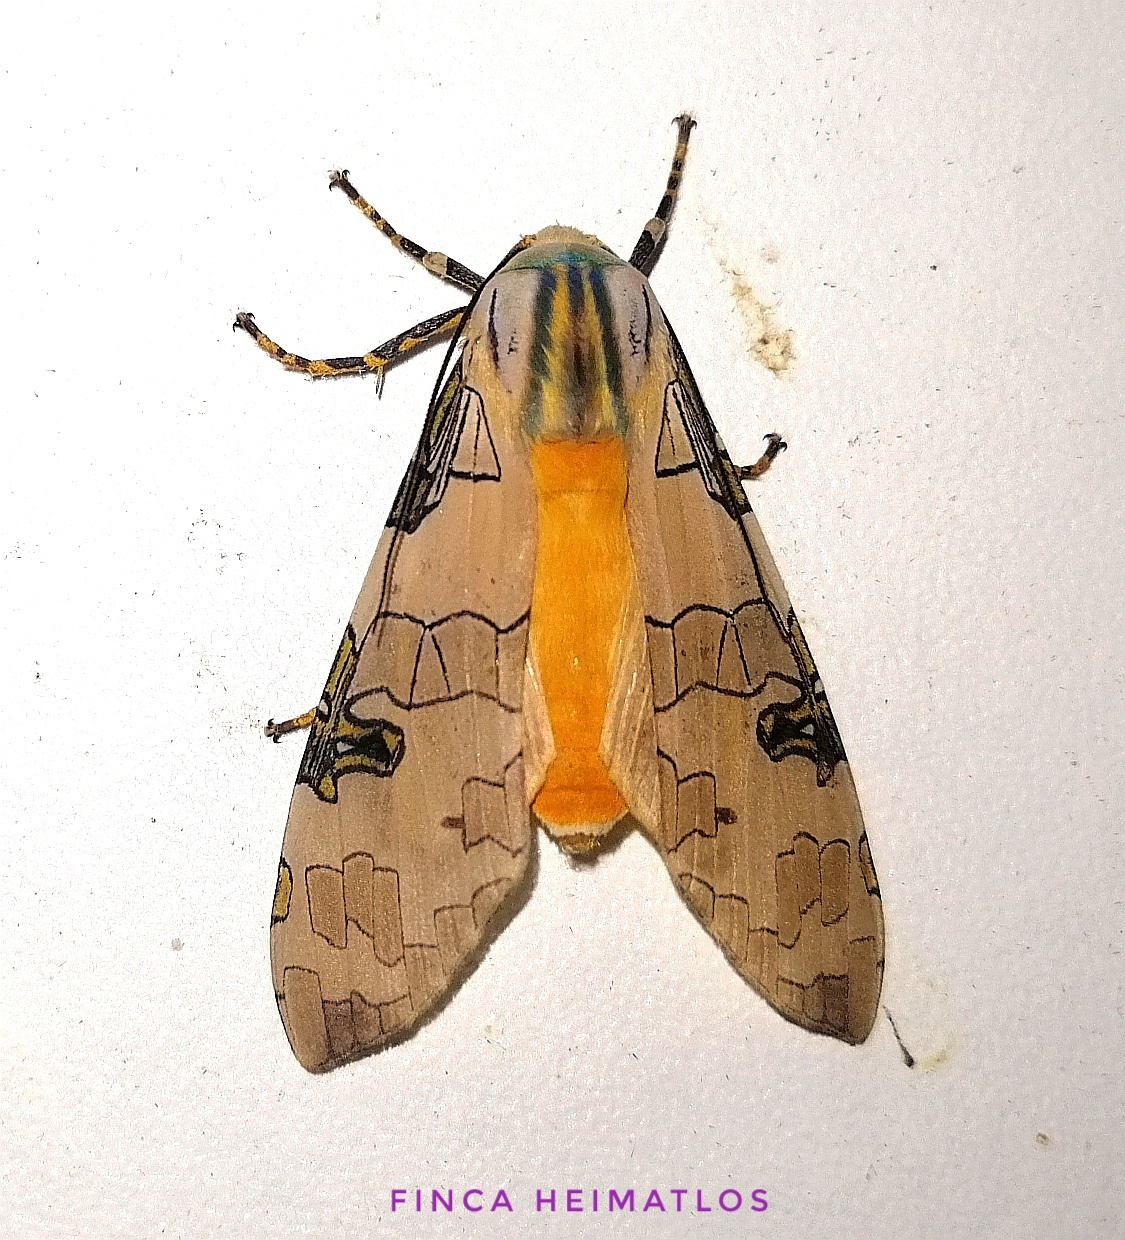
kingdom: Animalia
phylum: Arthropoda
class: Insecta
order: Lepidoptera
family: Erebidae
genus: Halysidota
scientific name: Halysidota interlineata
